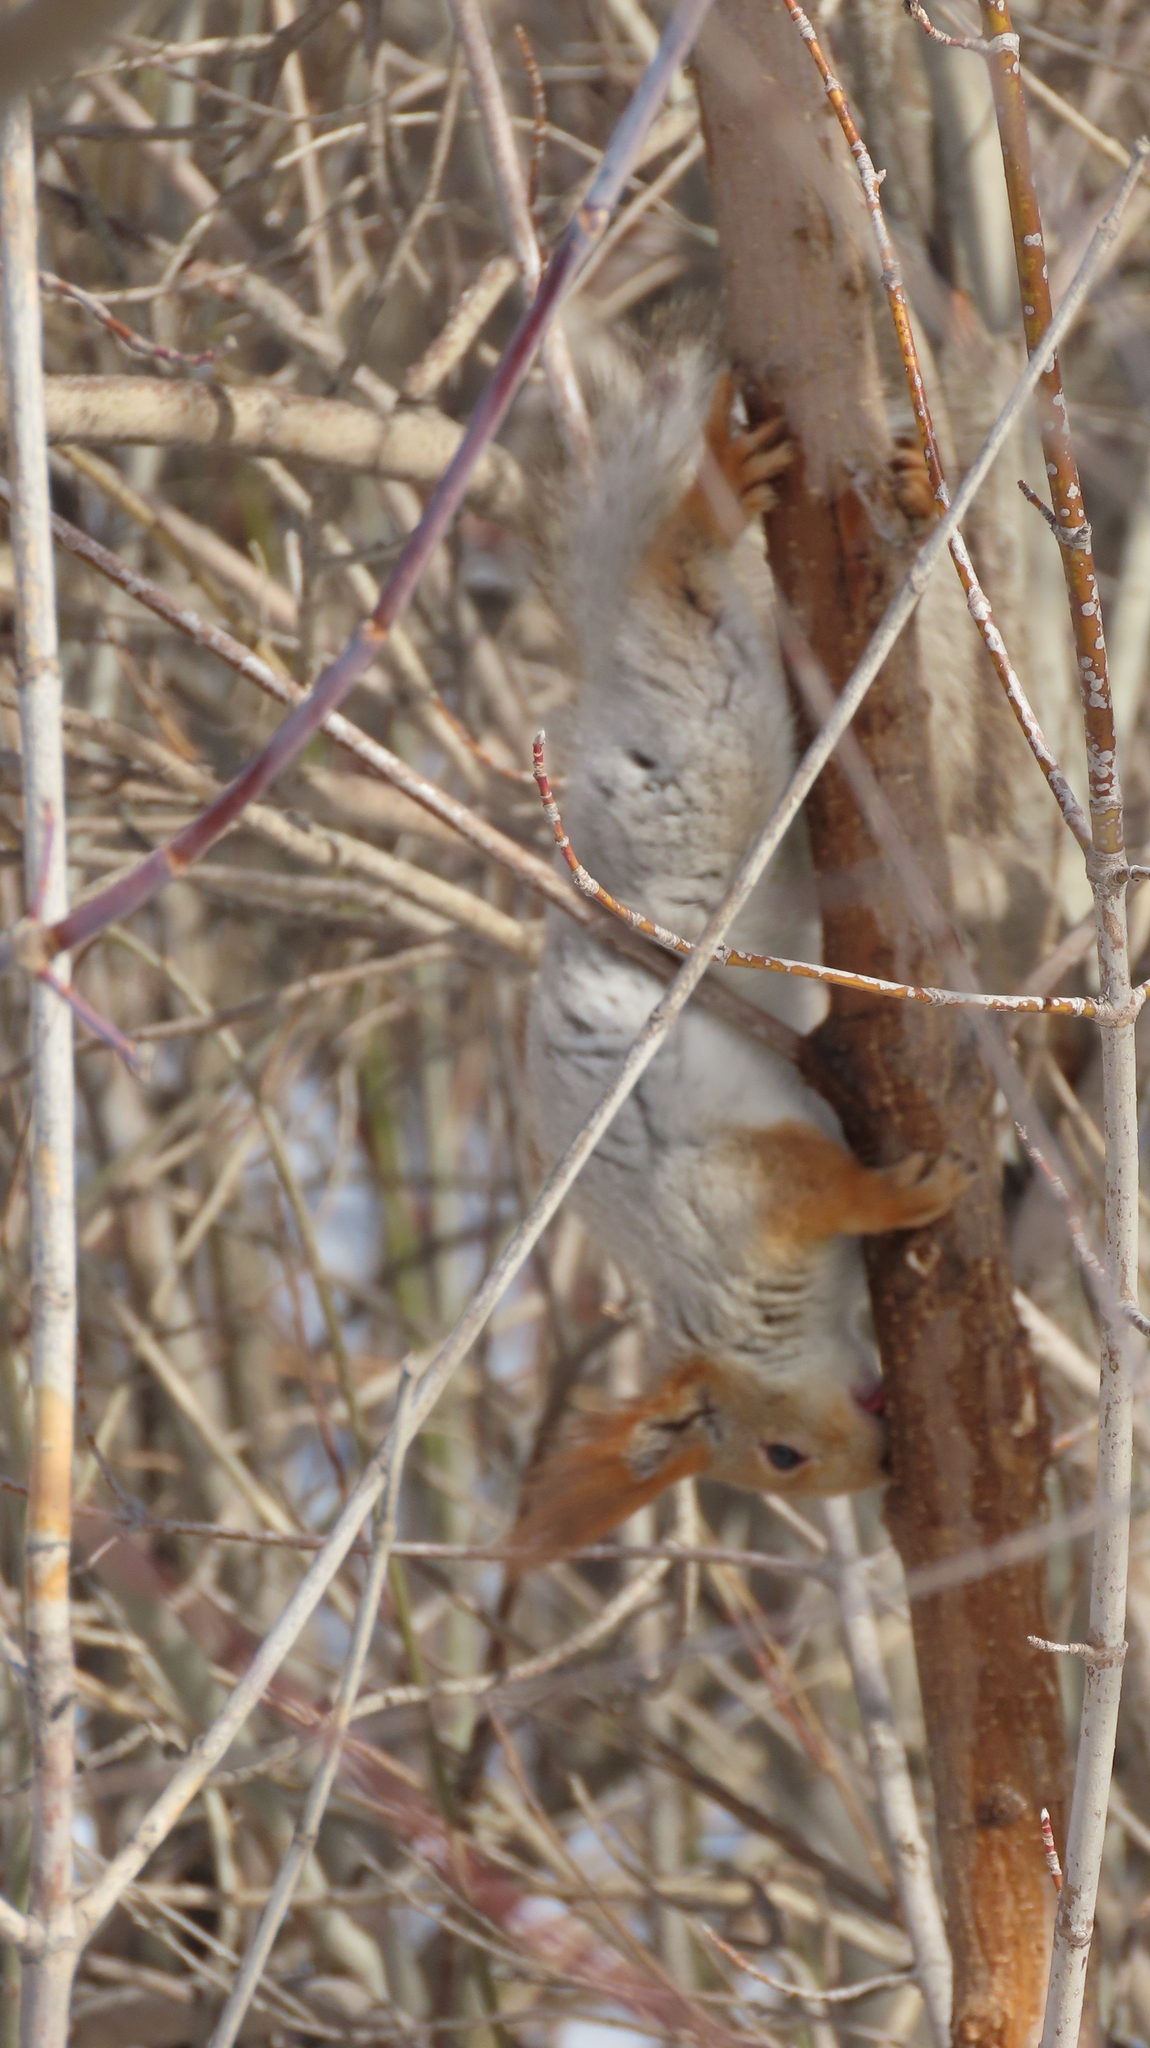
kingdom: Animalia
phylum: Chordata
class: Mammalia
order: Rodentia
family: Sciuridae
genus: Sciurus
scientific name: Sciurus vulgaris
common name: Eurasian red squirrel
